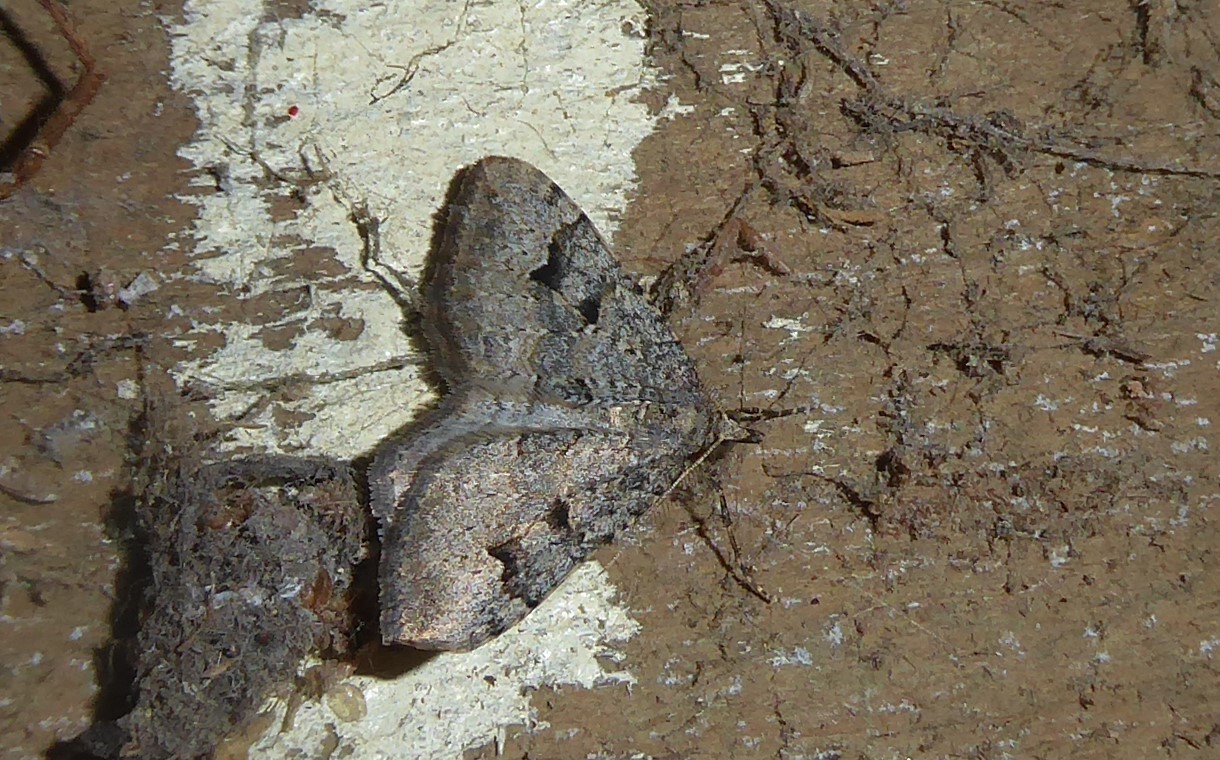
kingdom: Animalia
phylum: Arthropoda
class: Insecta
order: Lepidoptera
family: Geometridae
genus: Epyaxa
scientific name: Epyaxa rosearia
